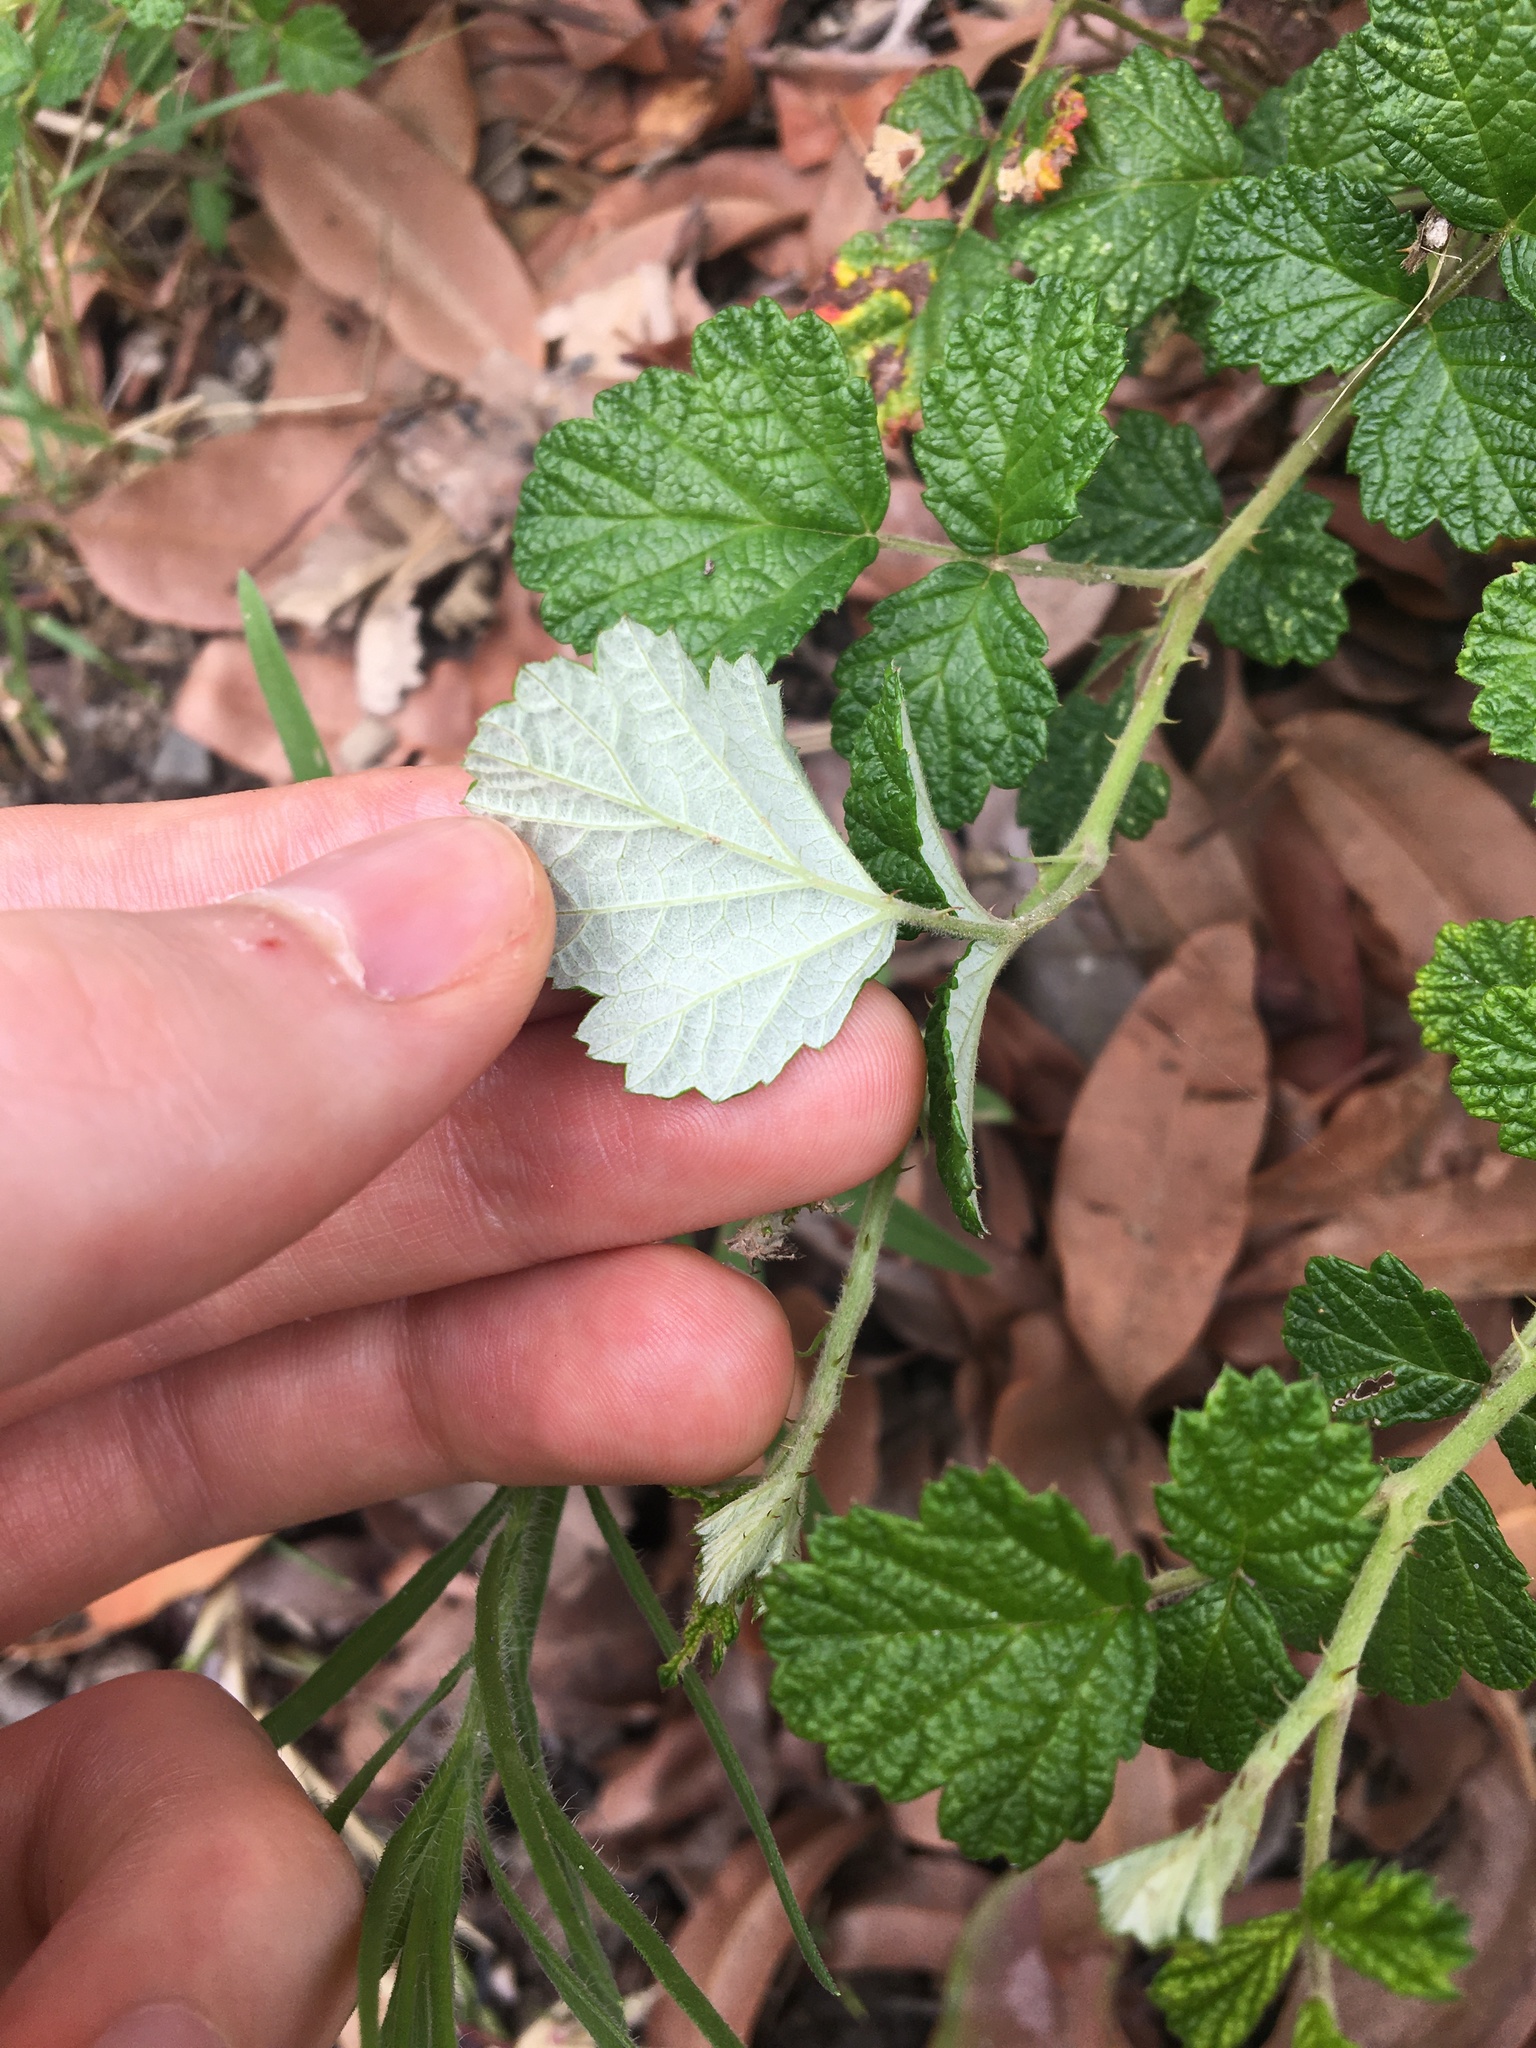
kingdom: Plantae
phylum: Tracheophyta
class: Magnoliopsida
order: Rosales
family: Rosaceae
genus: Rubus
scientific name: Rubus parvifolius
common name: Threeleaf blackberry
